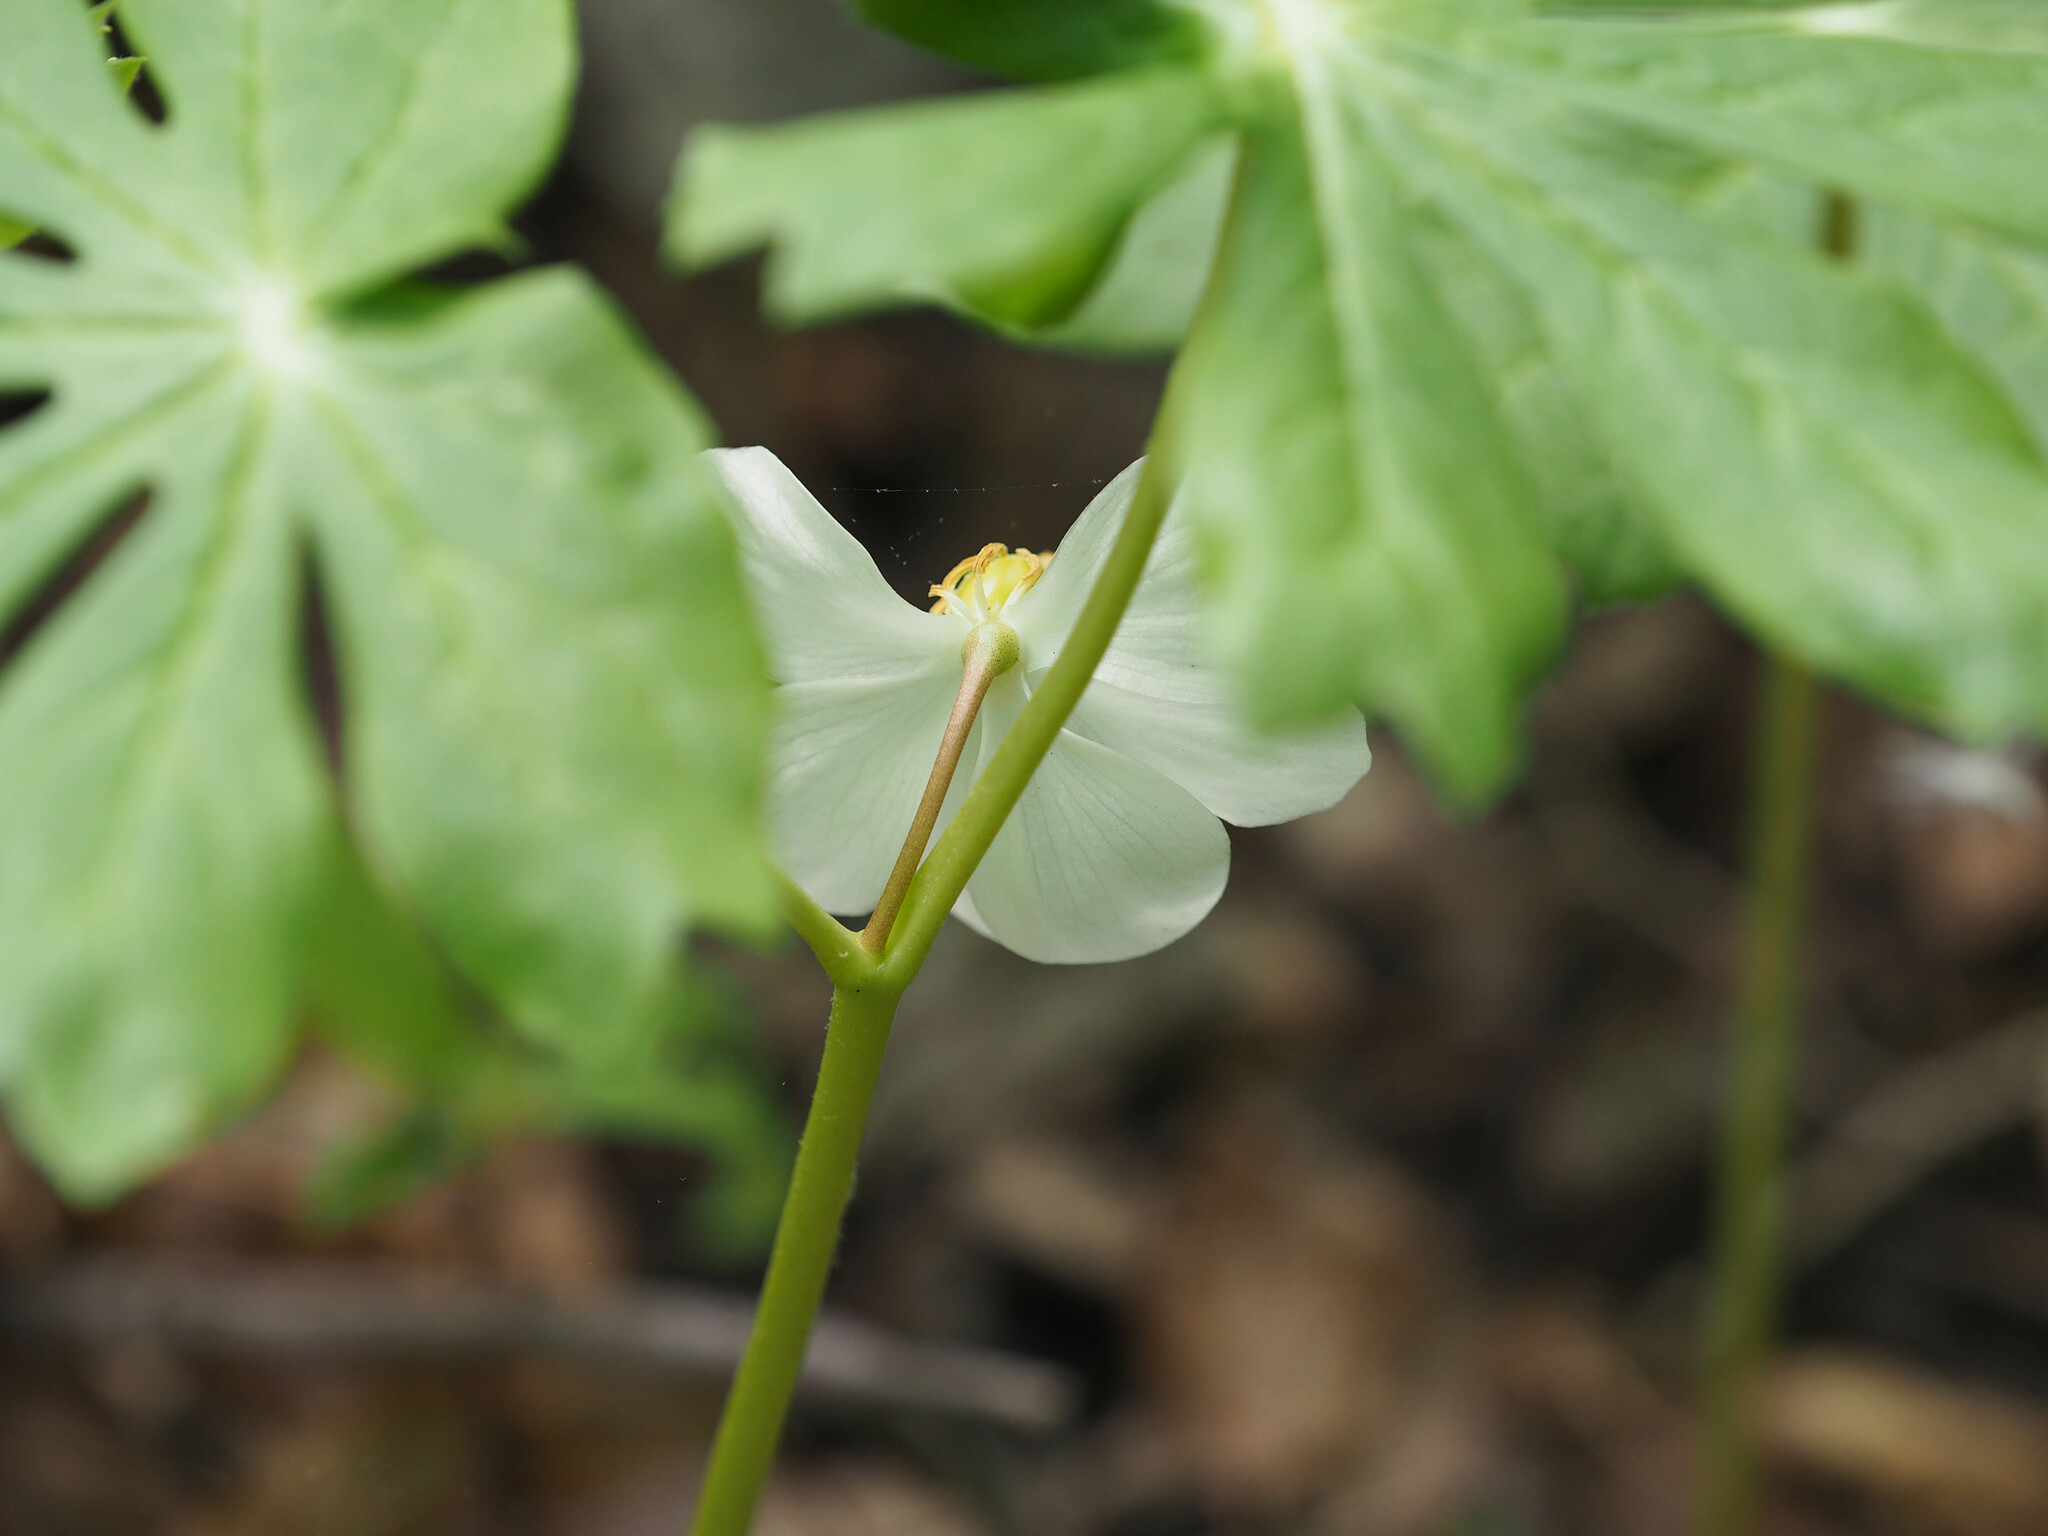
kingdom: Plantae
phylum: Tracheophyta
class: Magnoliopsida
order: Ranunculales
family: Berberidaceae
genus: Podophyllum
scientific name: Podophyllum peltatum
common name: Wild mandrake
